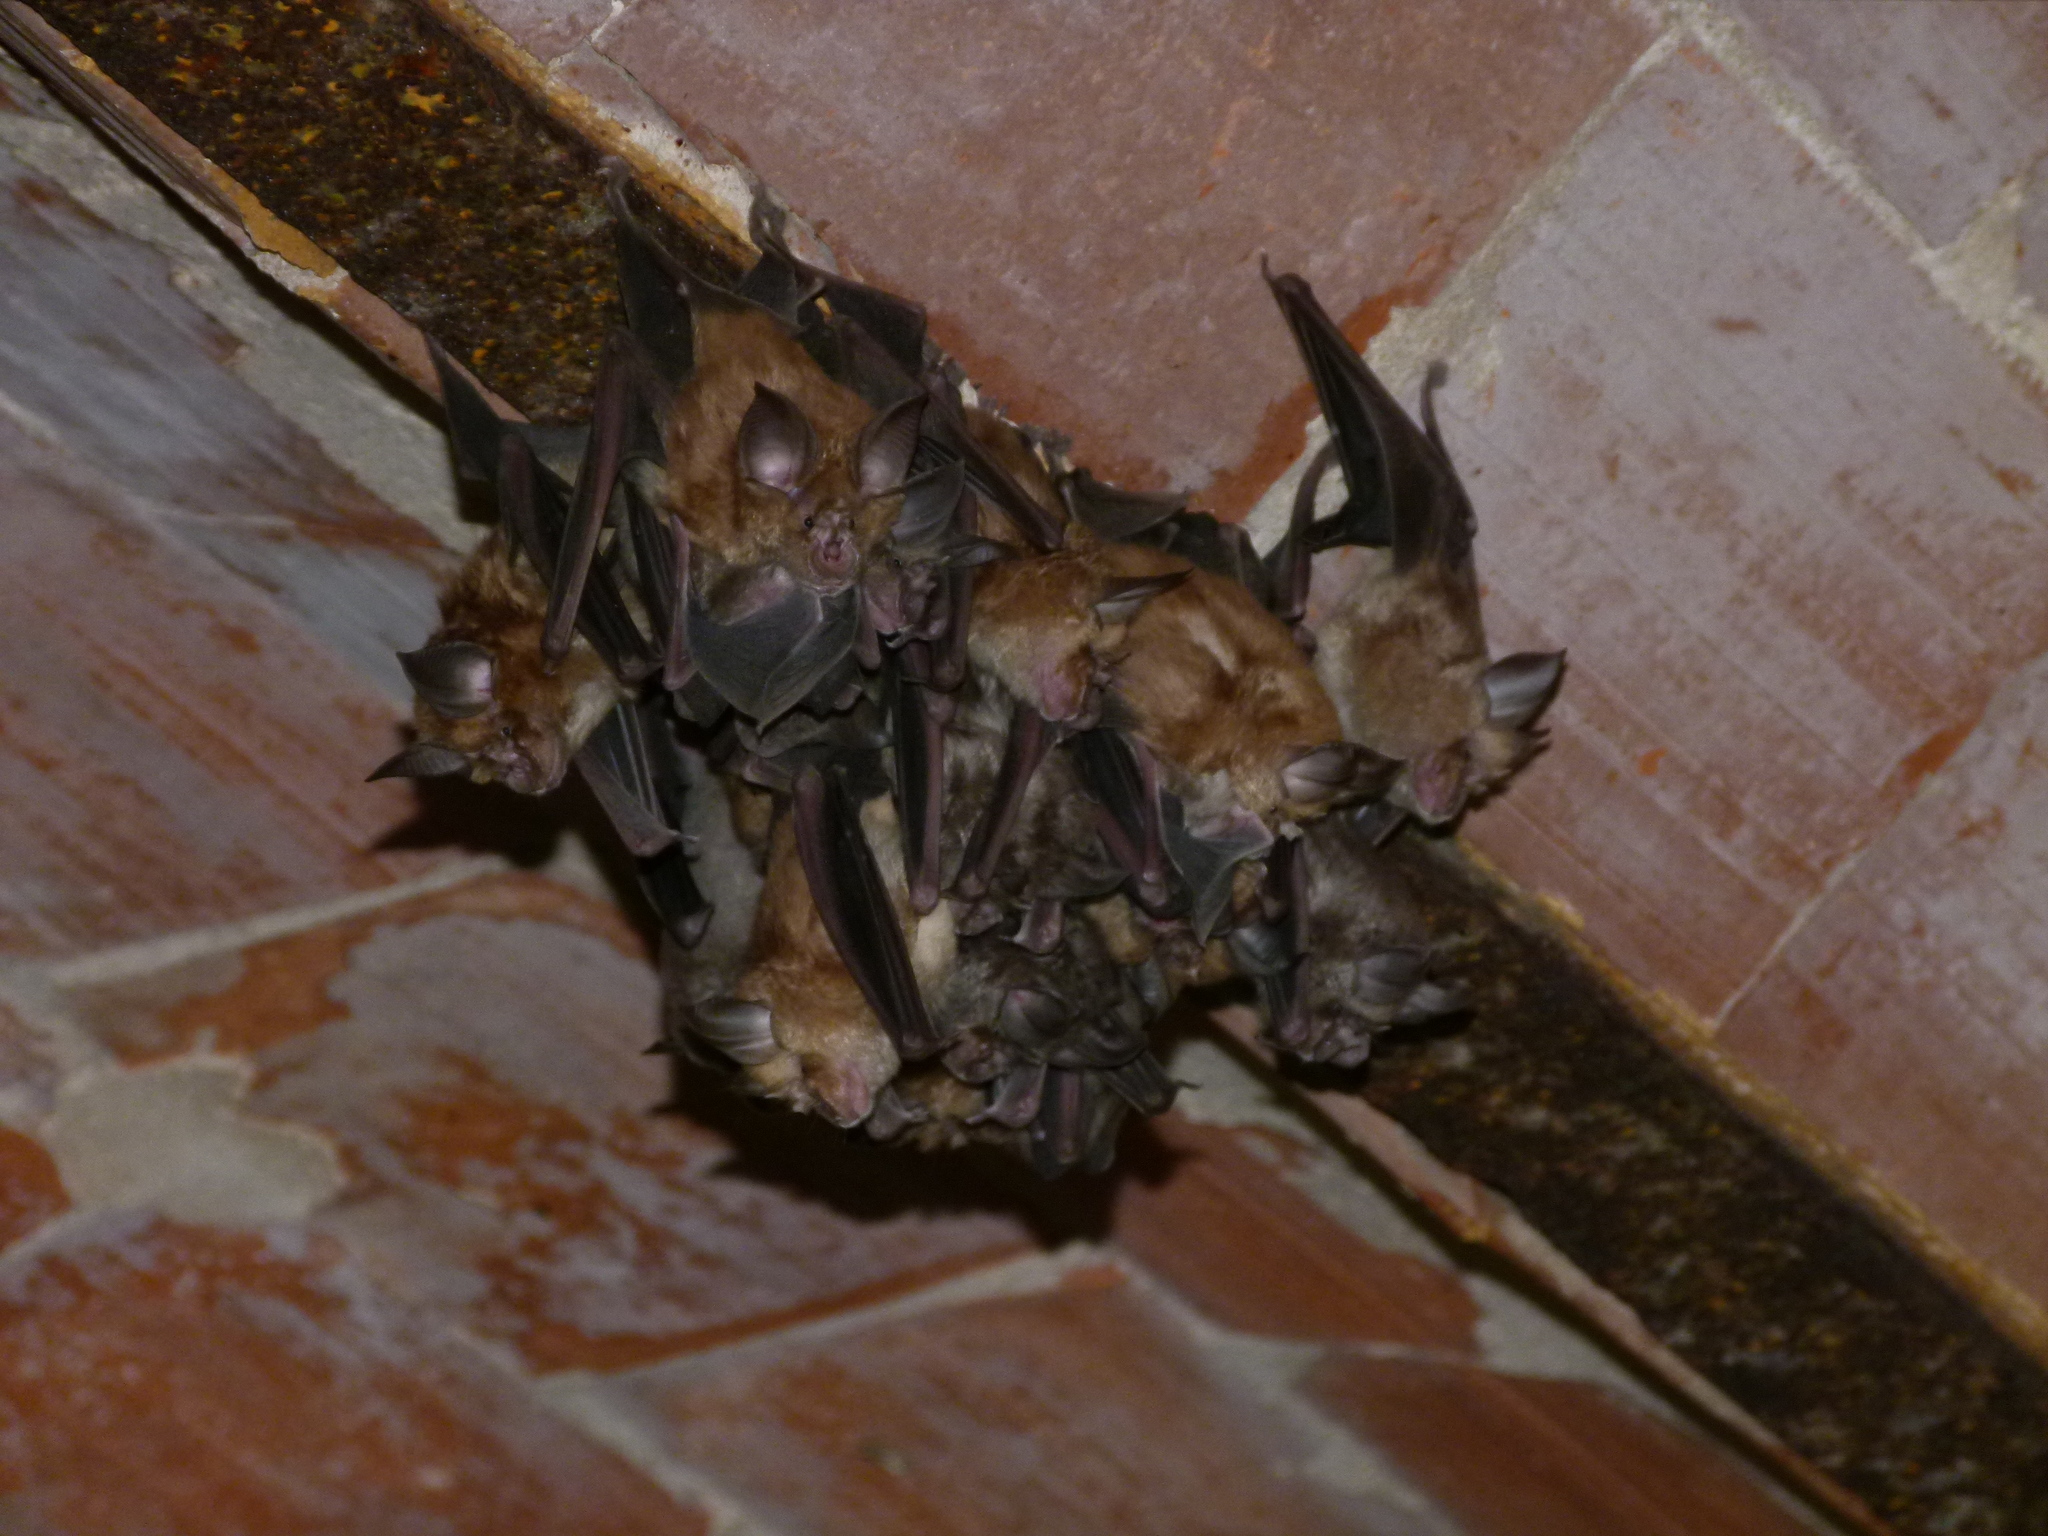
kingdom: Animalia
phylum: Chordata
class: Mammalia
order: Chiroptera
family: Rhinolophidae
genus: Rhinolophus
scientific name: Rhinolophus ferrumequinum
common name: Greater horseshoe bat
